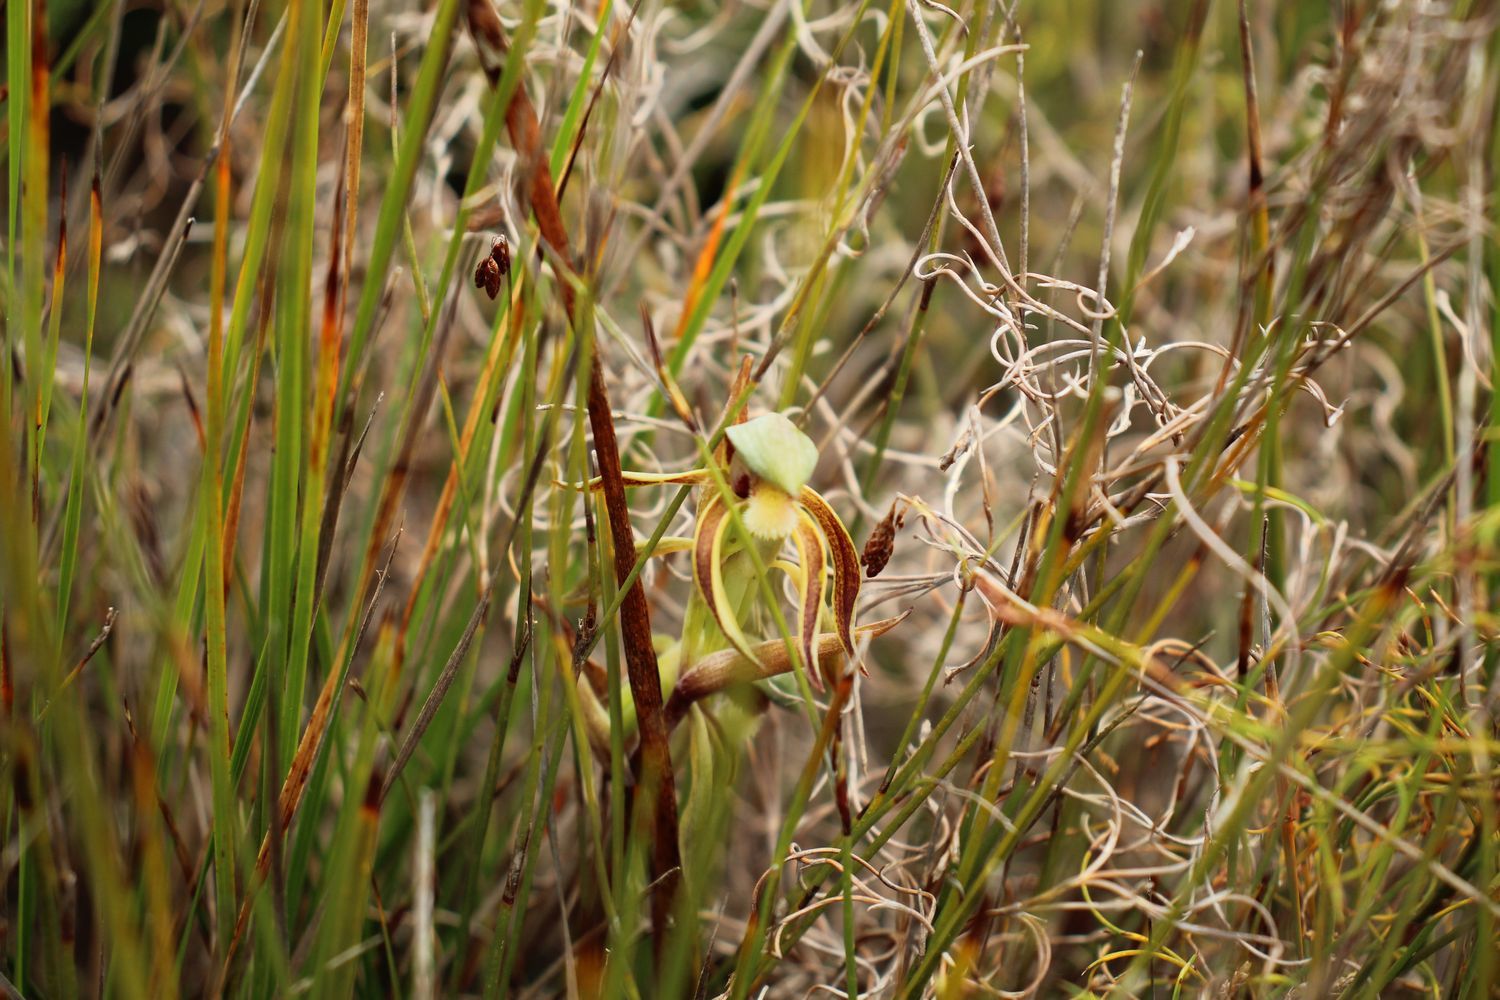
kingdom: Plantae
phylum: Tracheophyta
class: Liliopsida
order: Asparagales
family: Orchidaceae
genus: Lyperanthus
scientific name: Lyperanthus serratus
